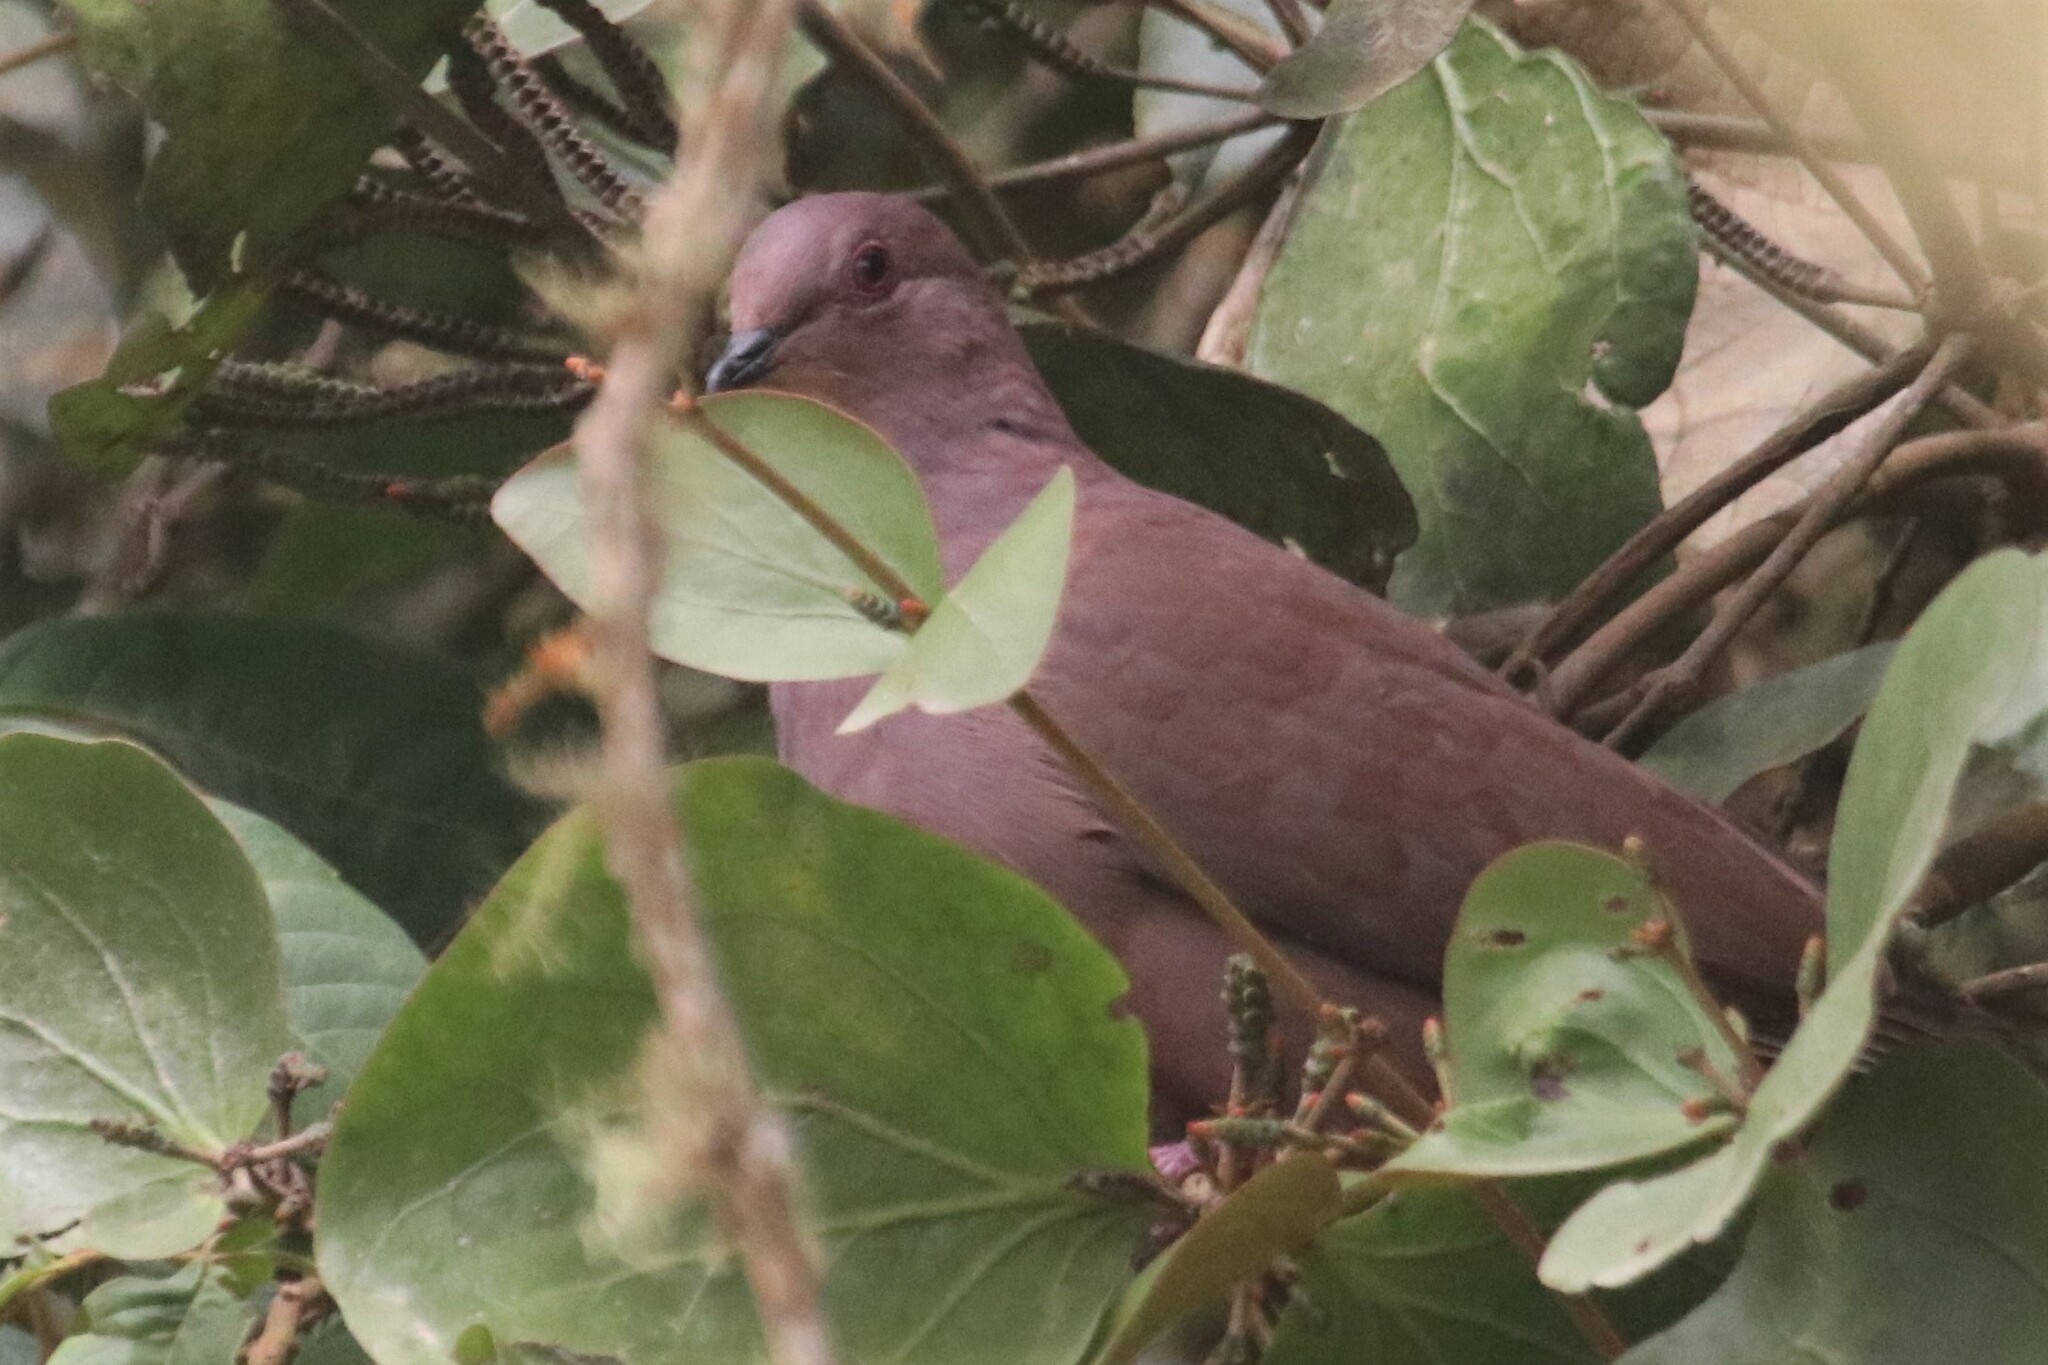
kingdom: Animalia
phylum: Chordata
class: Aves
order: Columbiformes
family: Columbidae
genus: Patagioenas
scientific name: Patagioenas subvinacea
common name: Ruddy pigeon
